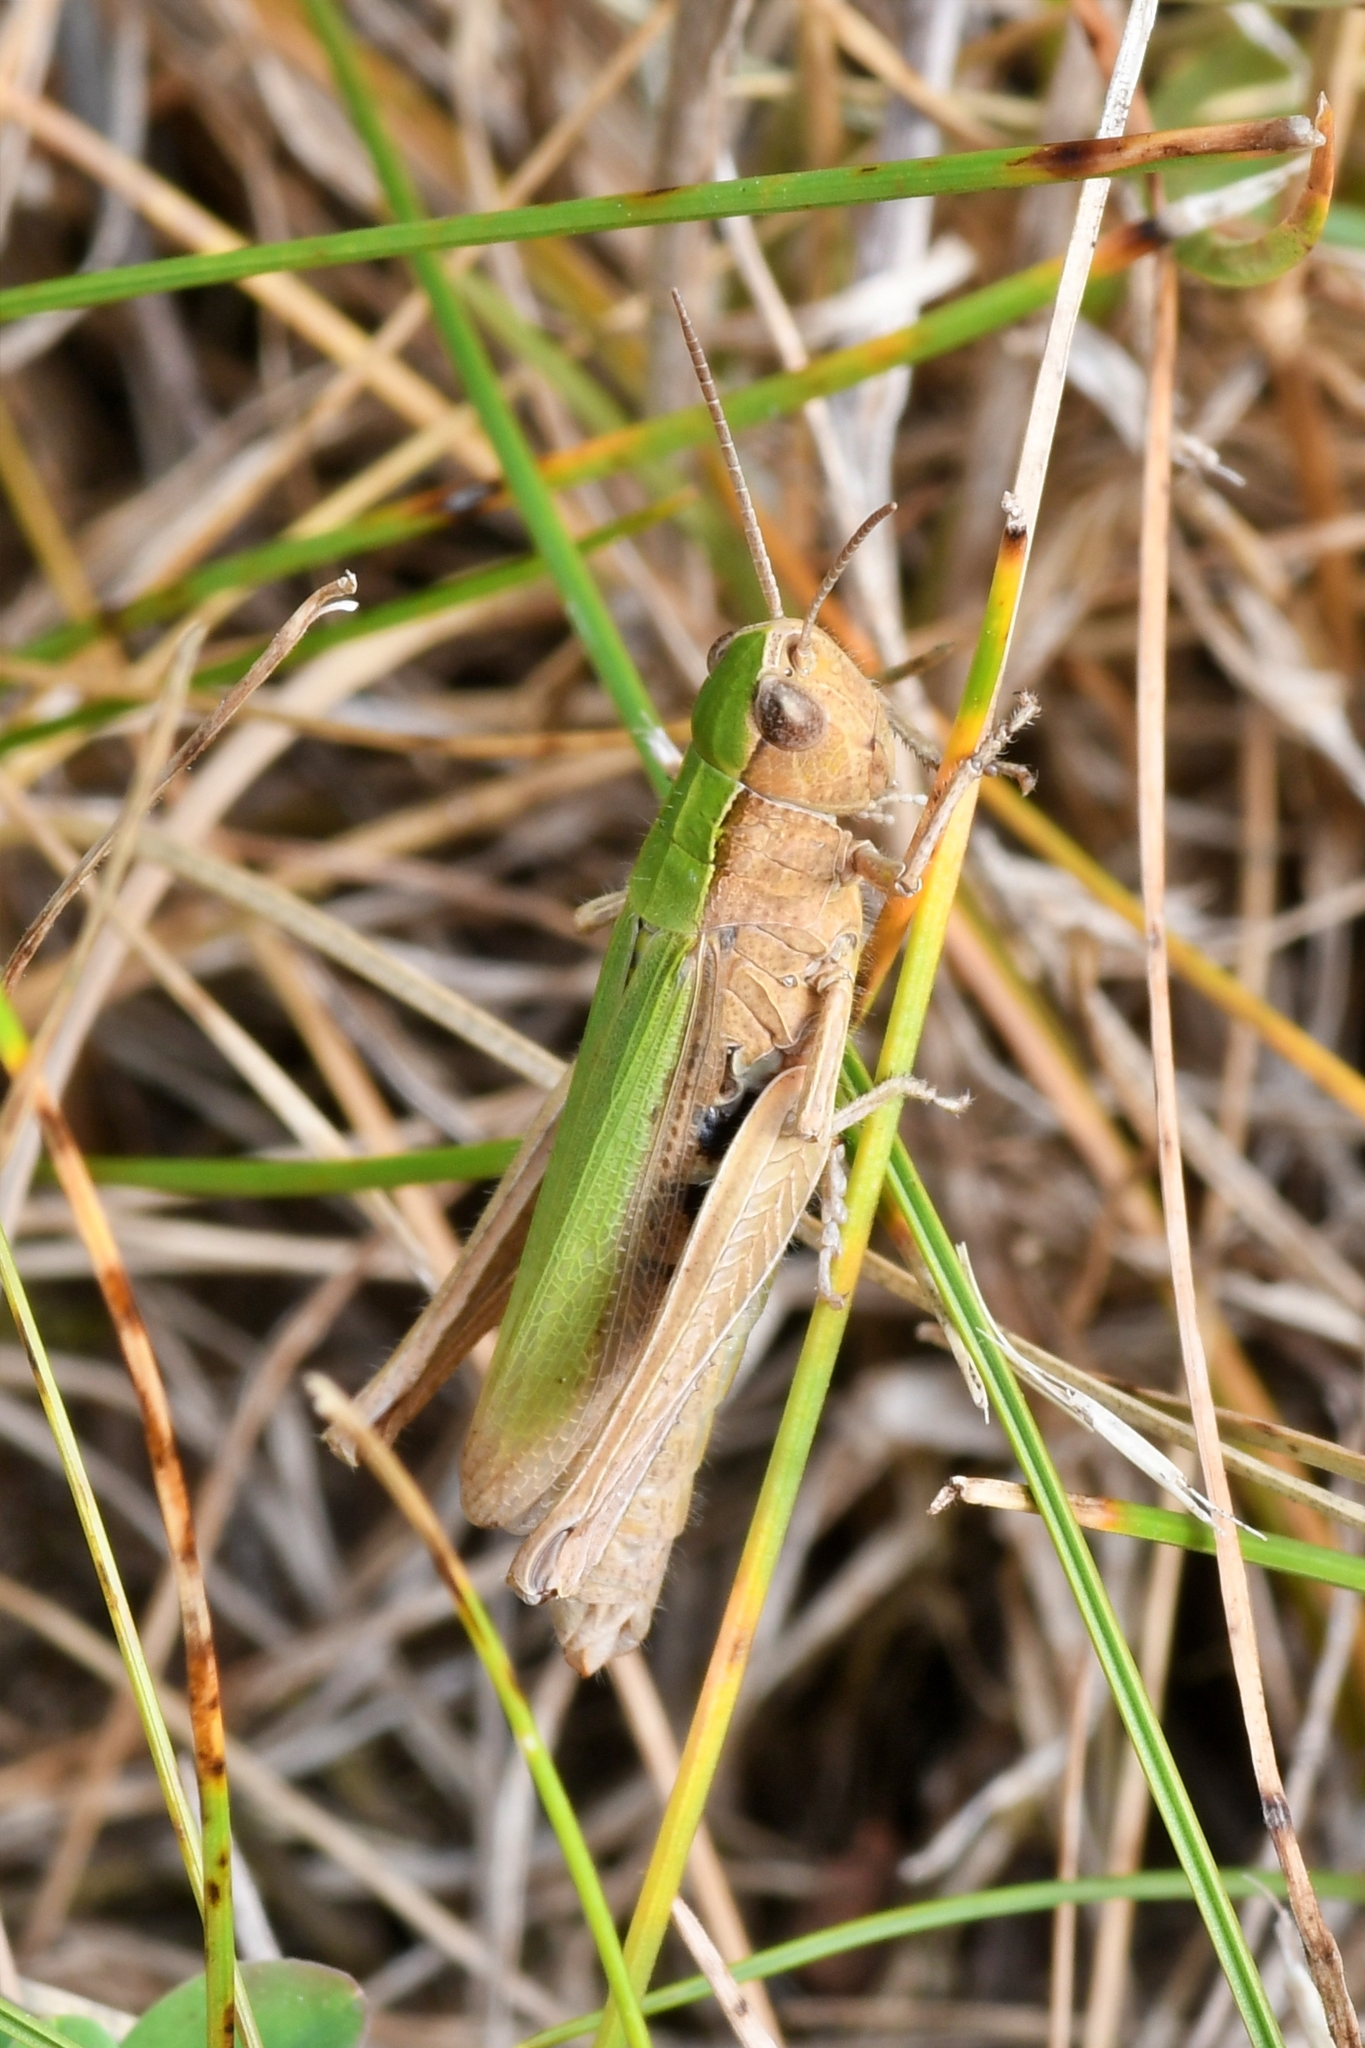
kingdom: Animalia
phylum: Arthropoda
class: Insecta
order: Orthoptera
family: Acrididae
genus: Chorthippus
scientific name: Chorthippus dorsatus
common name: Steppe grasshopper
